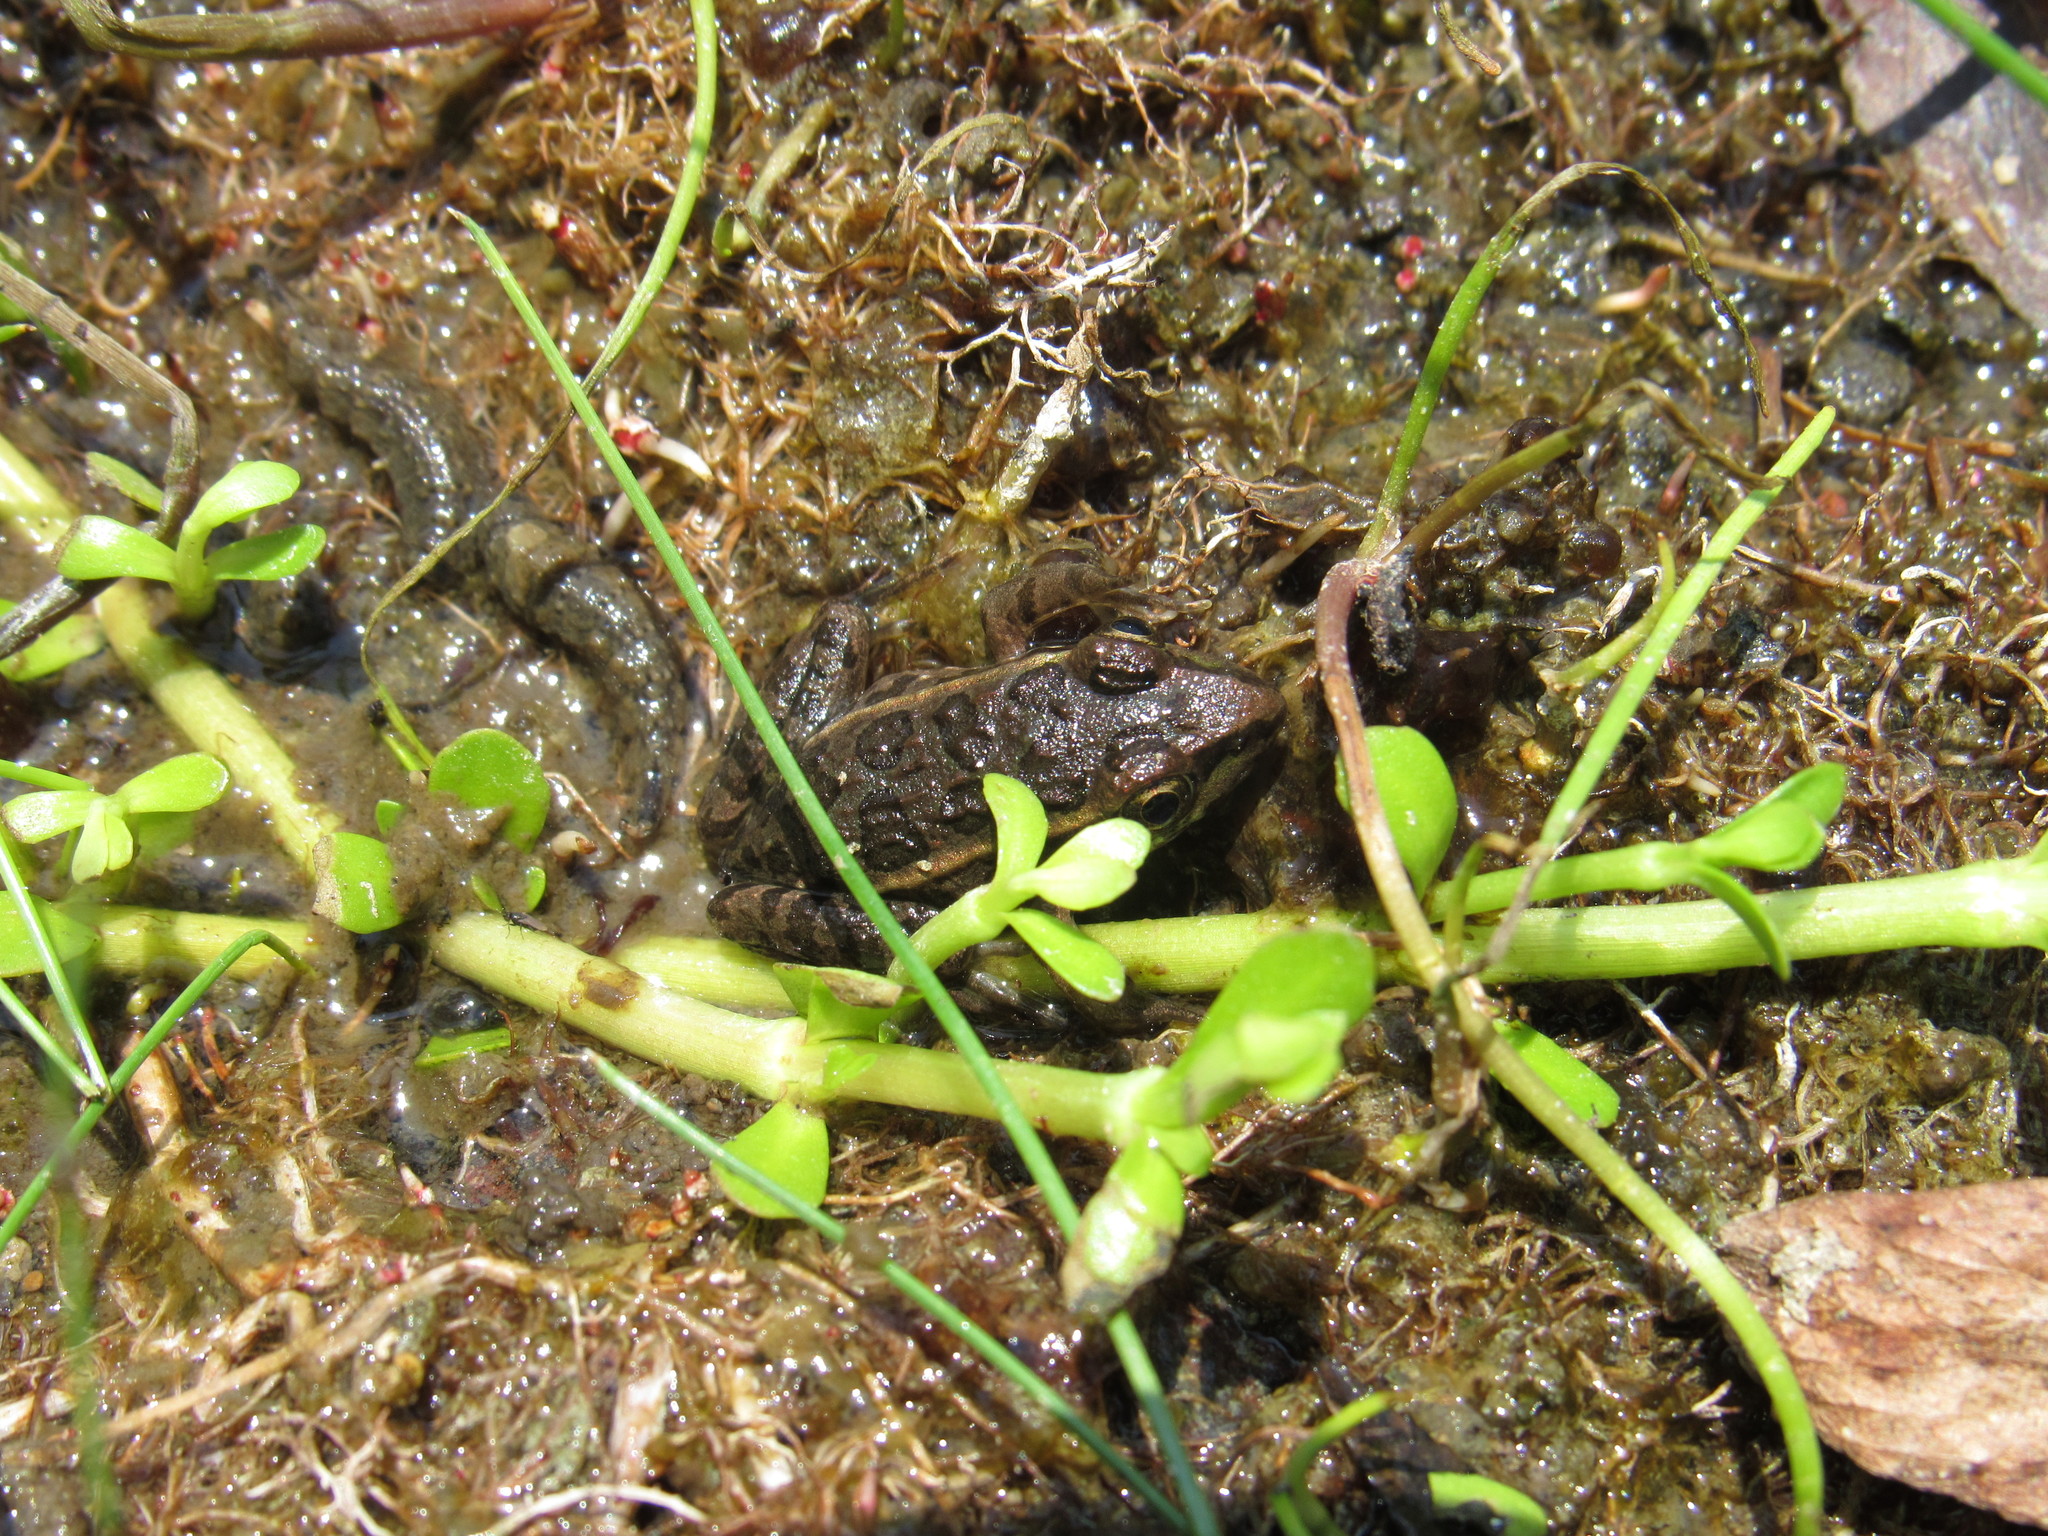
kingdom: Animalia
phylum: Chordata
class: Amphibia
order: Anura
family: Ranidae
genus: Lithobates
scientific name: Lithobates neovolcanicus
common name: Transverse volcanic leopard frog
